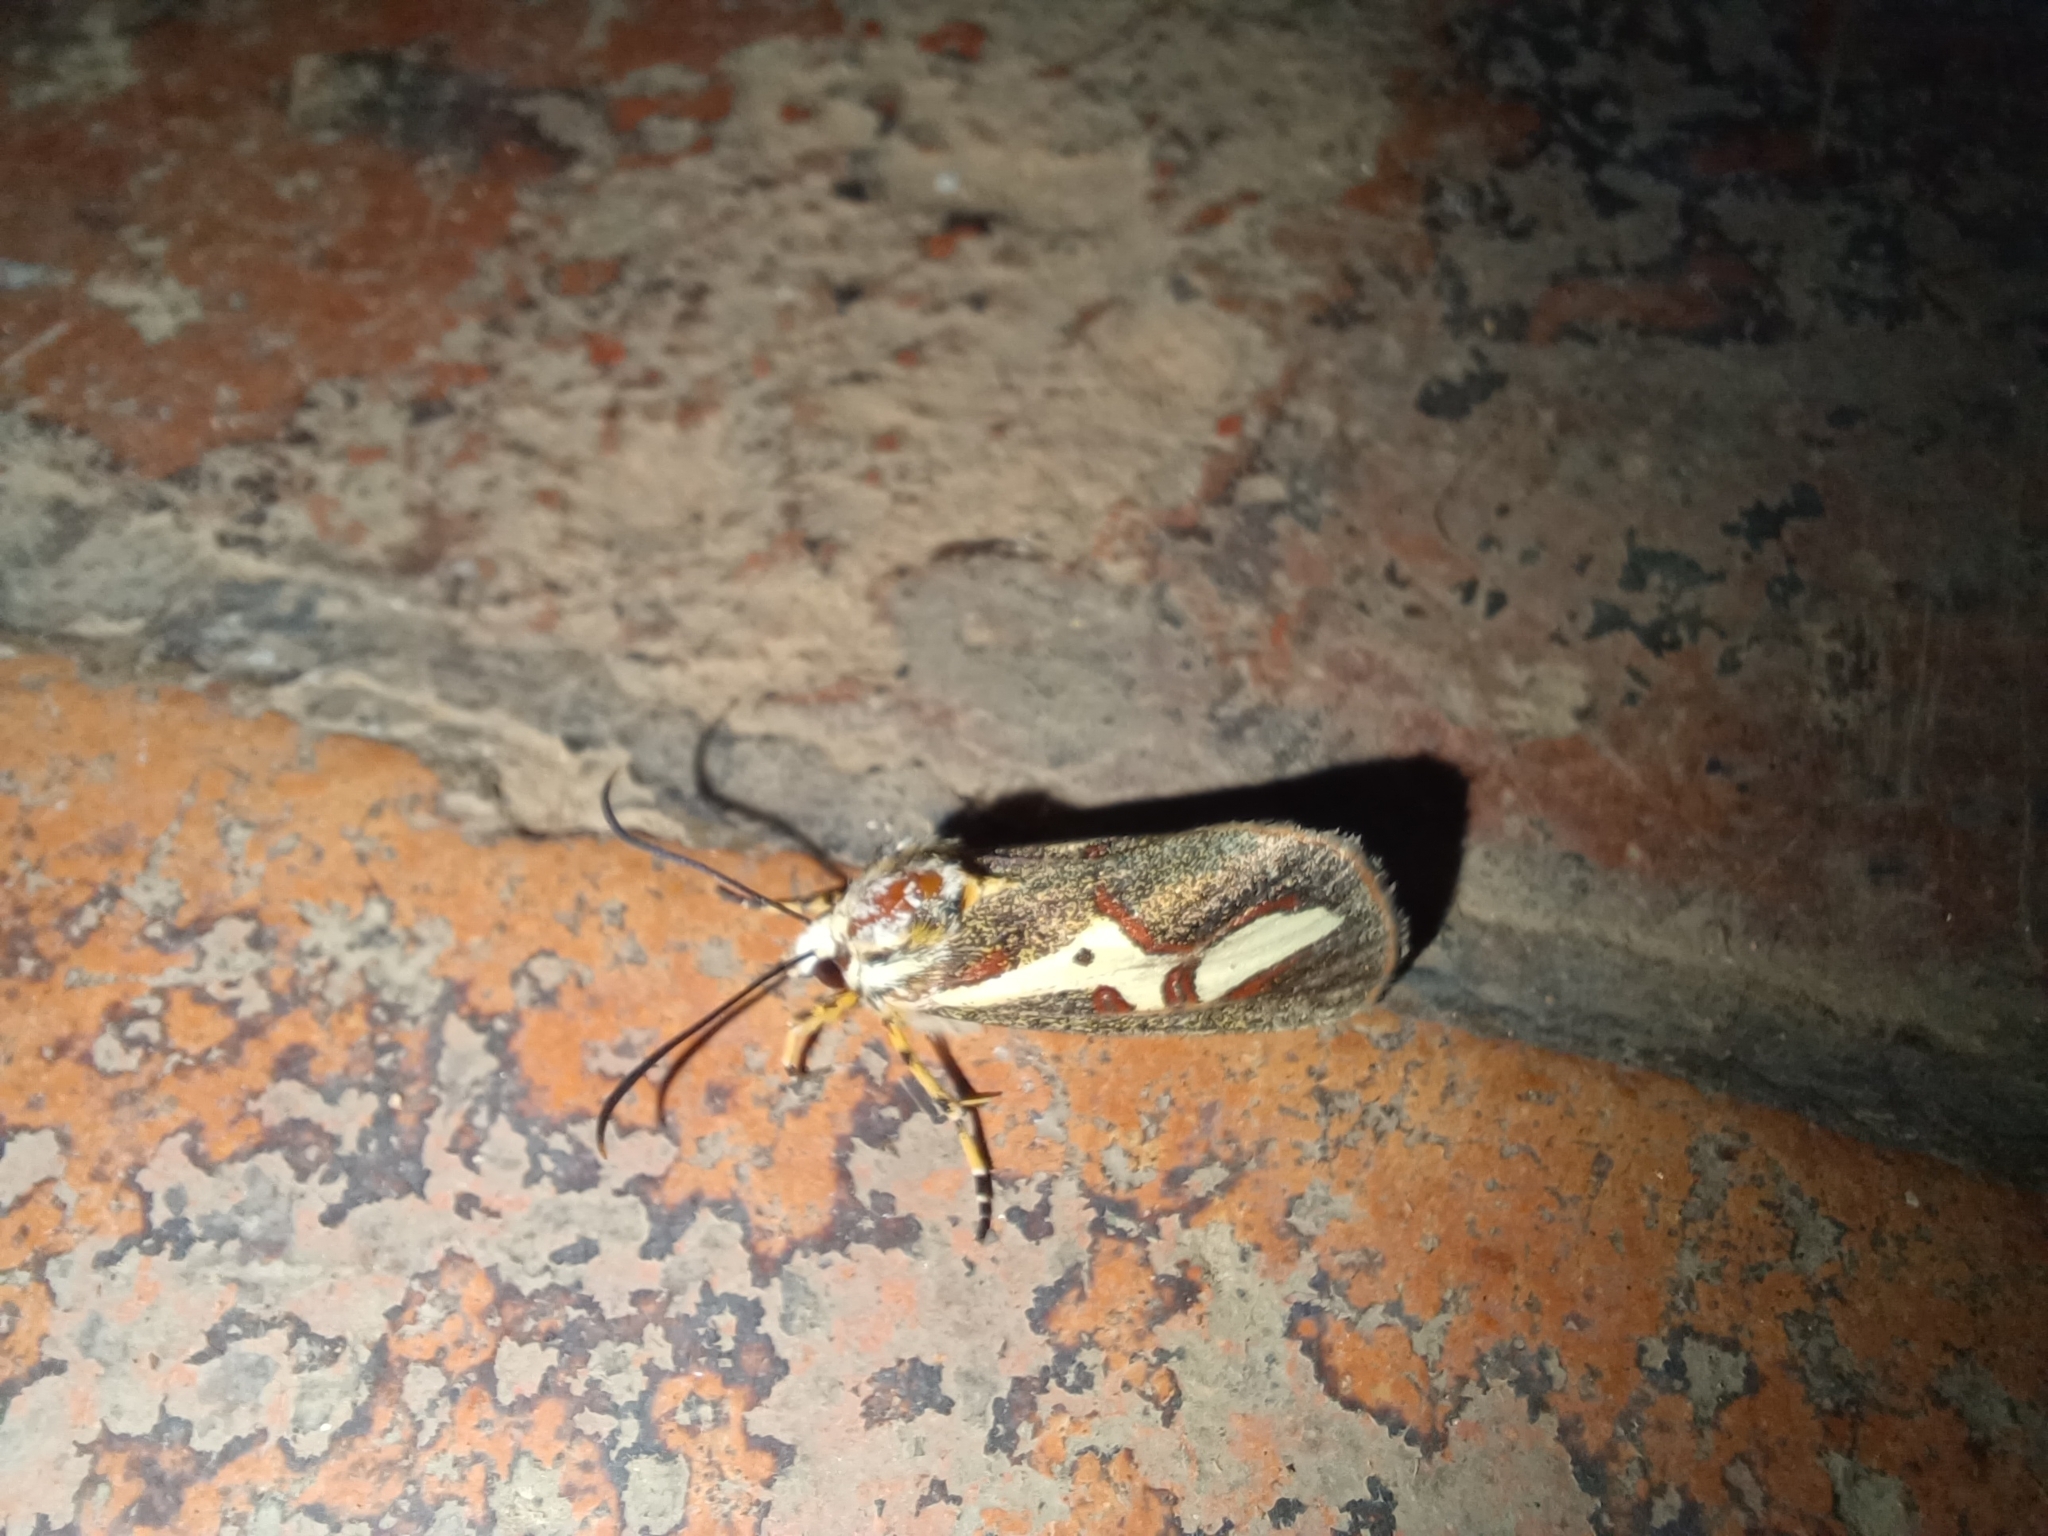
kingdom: Animalia
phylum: Arthropoda
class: Insecta
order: Lepidoptera
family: Noctuidae
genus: Aegocera
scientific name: Aegocera venulia
